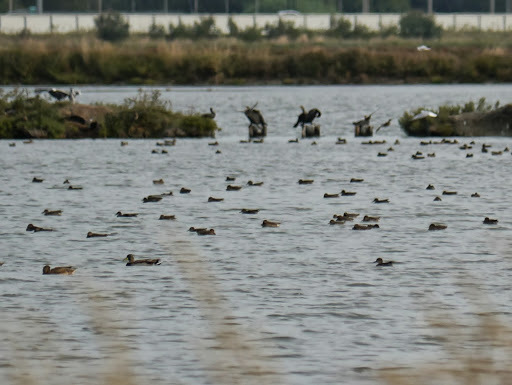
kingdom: Animalia
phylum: Chordata
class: Aves
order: Anseriformes
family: Anatidae
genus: Anas
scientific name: Anas platyrhynchos
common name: Mallard
